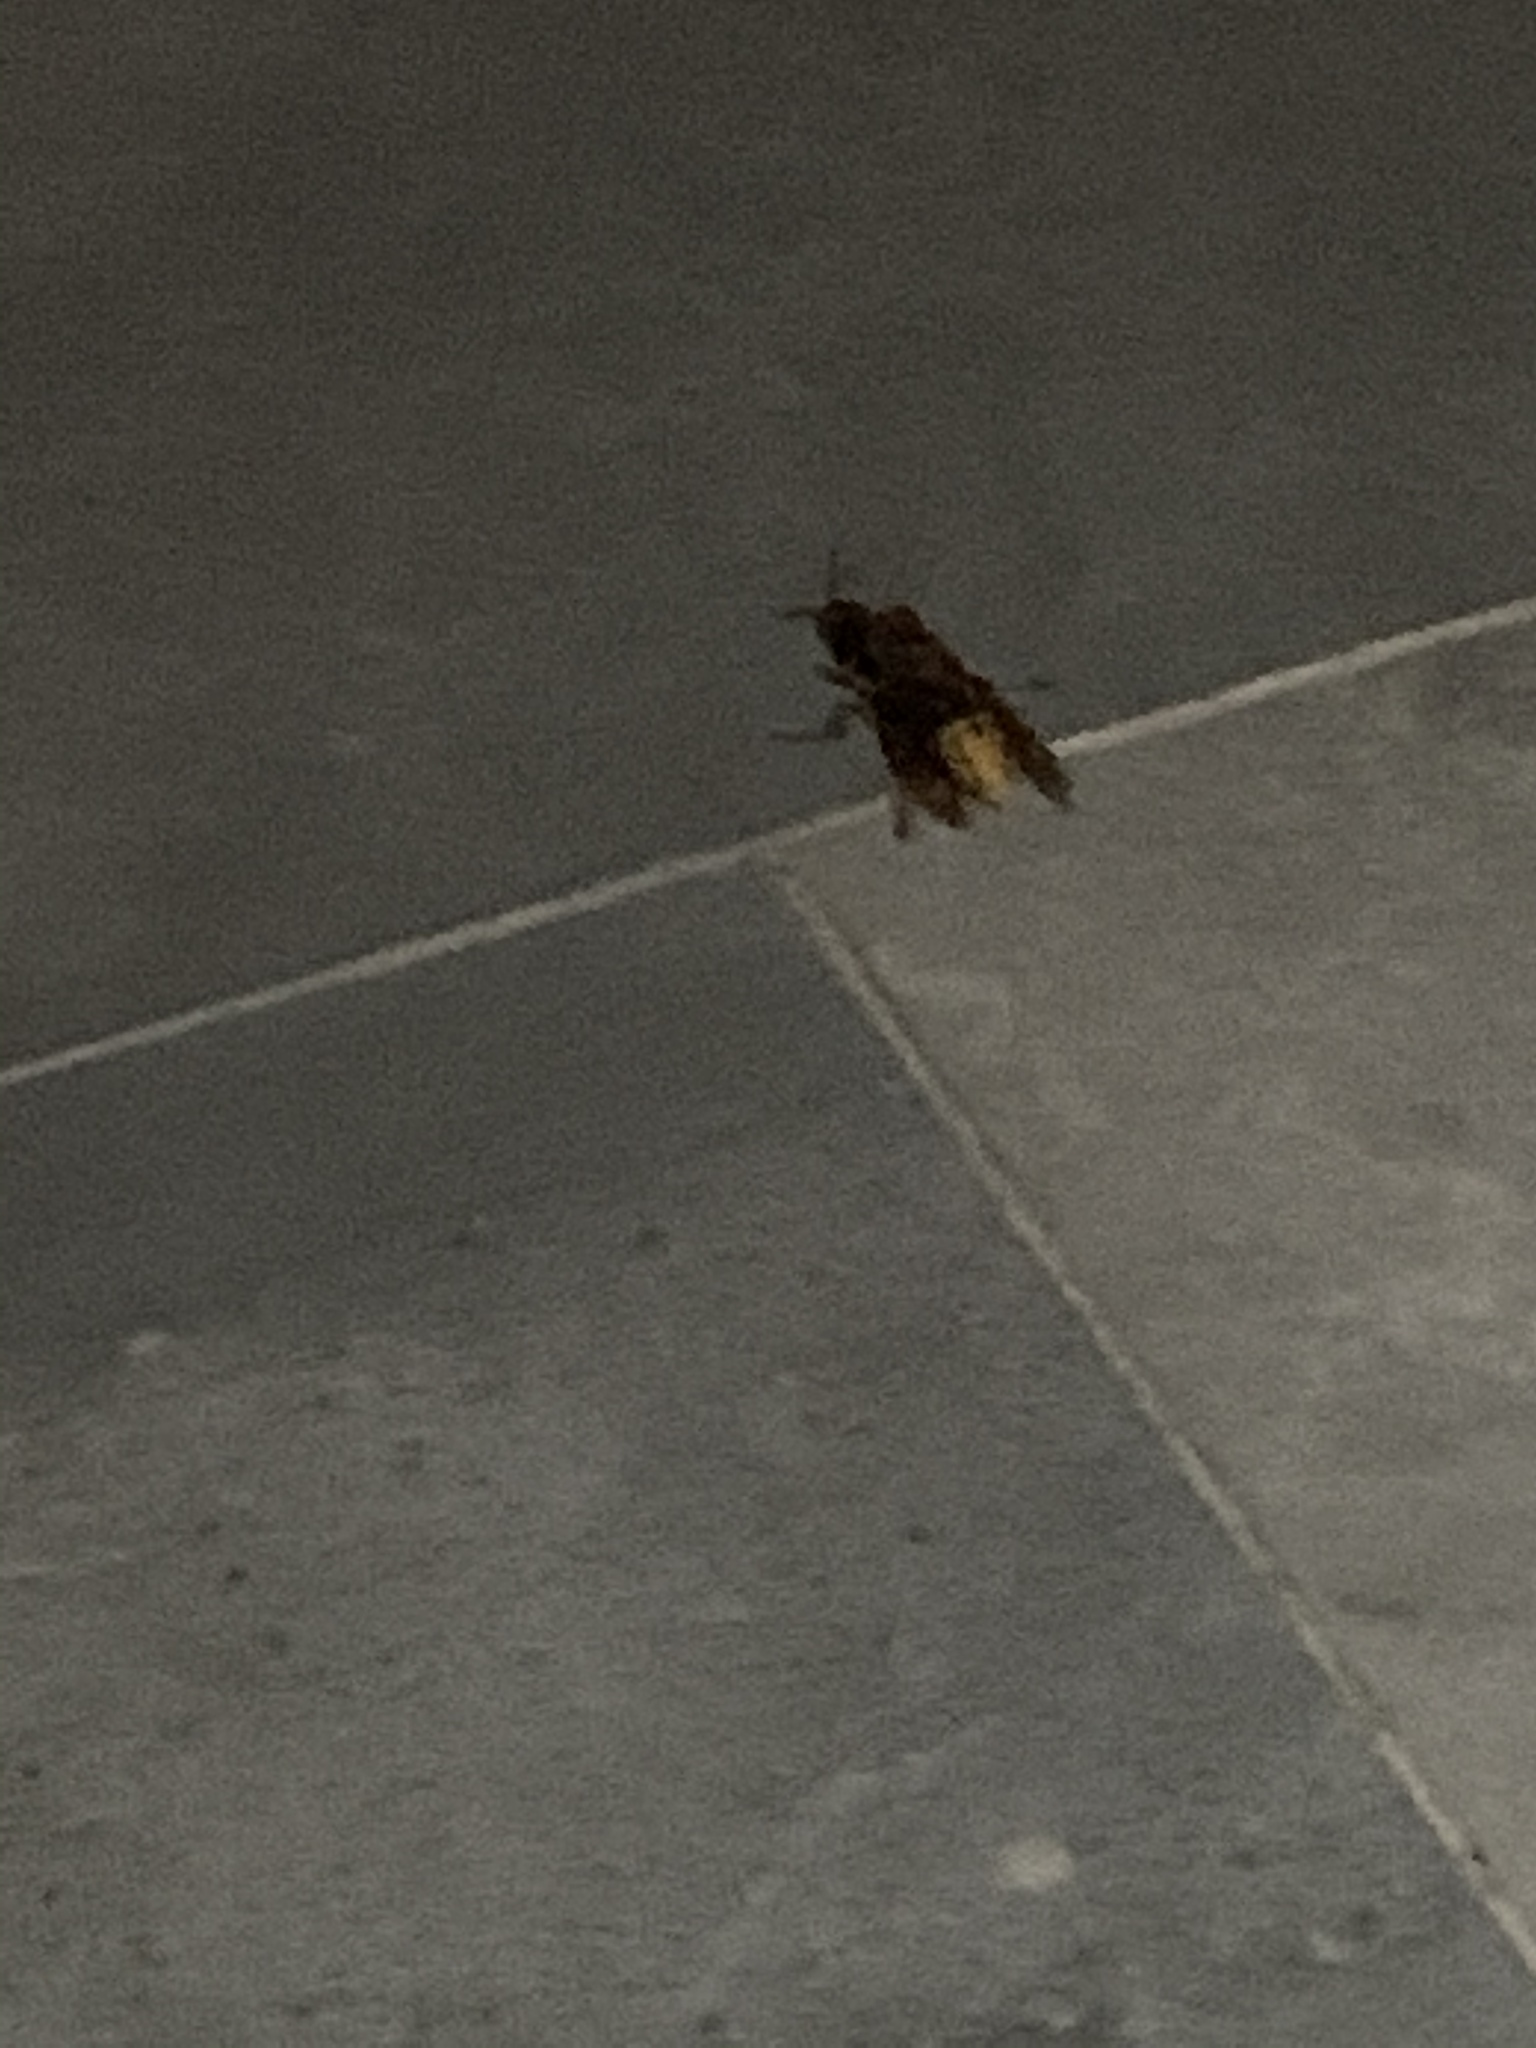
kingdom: Animalia
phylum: Arthropoda
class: Insecta
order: Hymenoptera
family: Vespidae
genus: Vespa
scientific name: Vespa crabro
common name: Hornet
